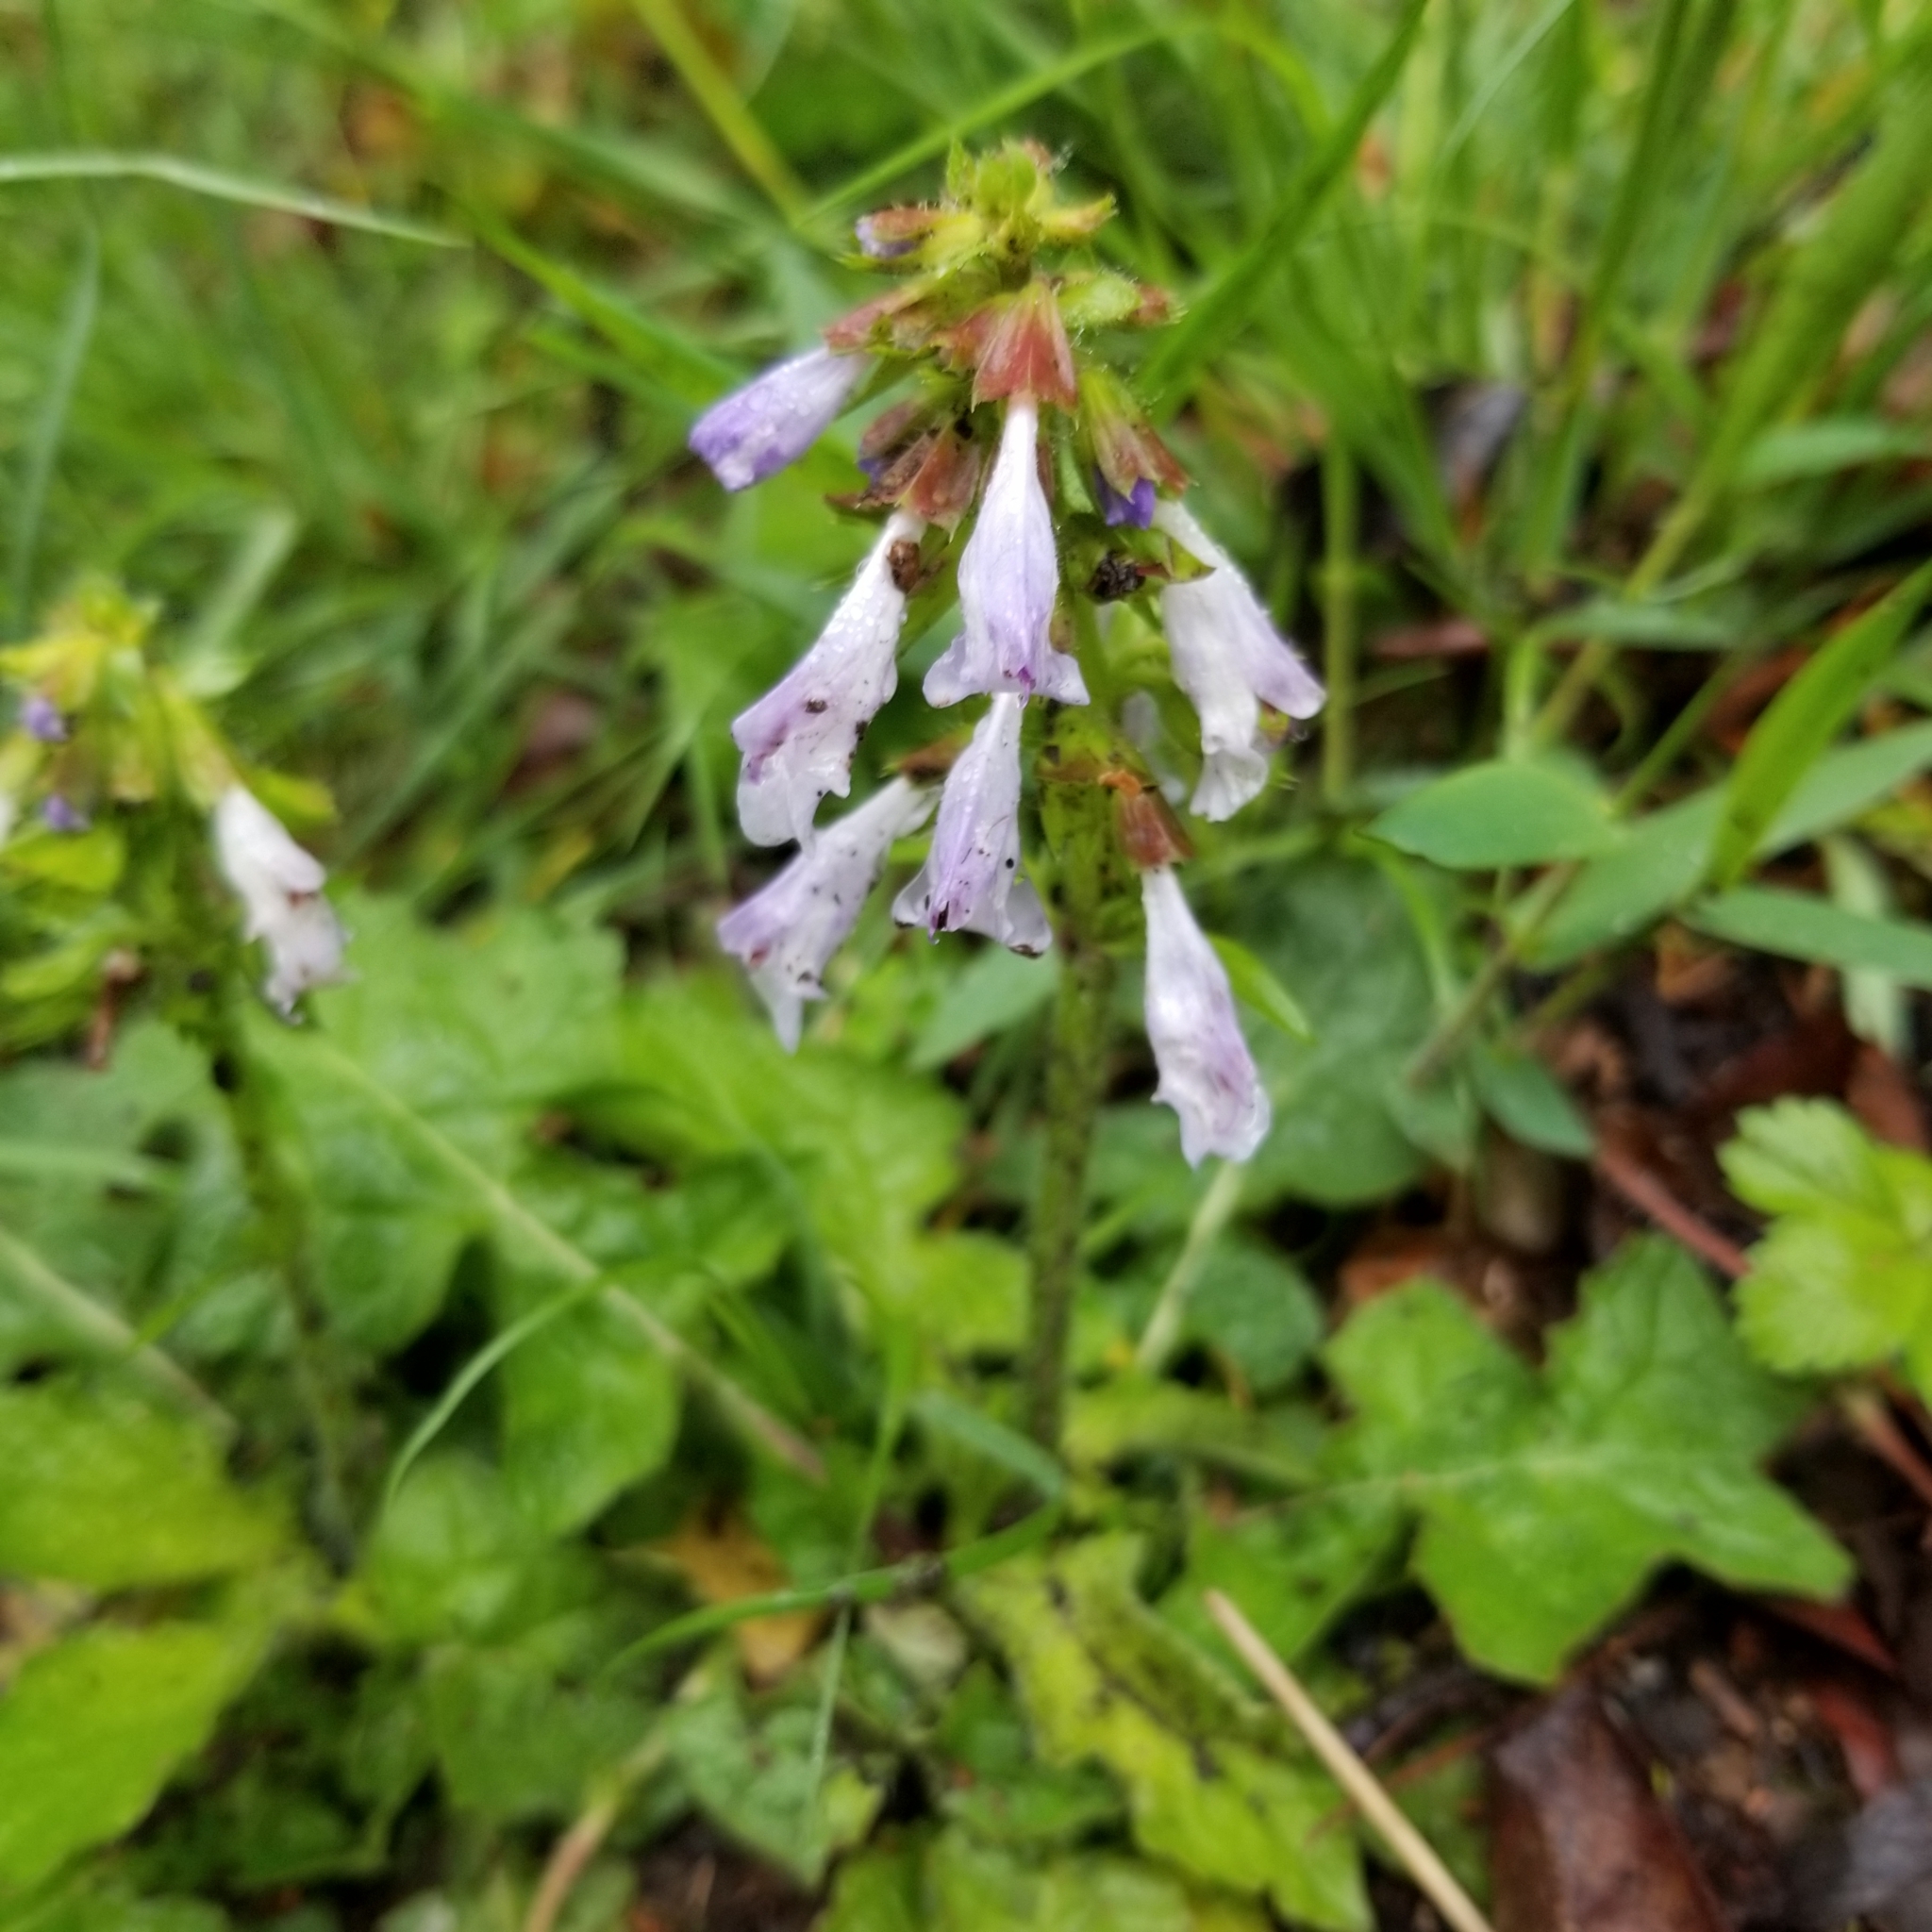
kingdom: Plantae
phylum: Tracheophyta
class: Magnoliopsida
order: Lamiales
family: Lamiaceae
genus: Salvia
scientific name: Salvia lyrata
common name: Cancerweed
